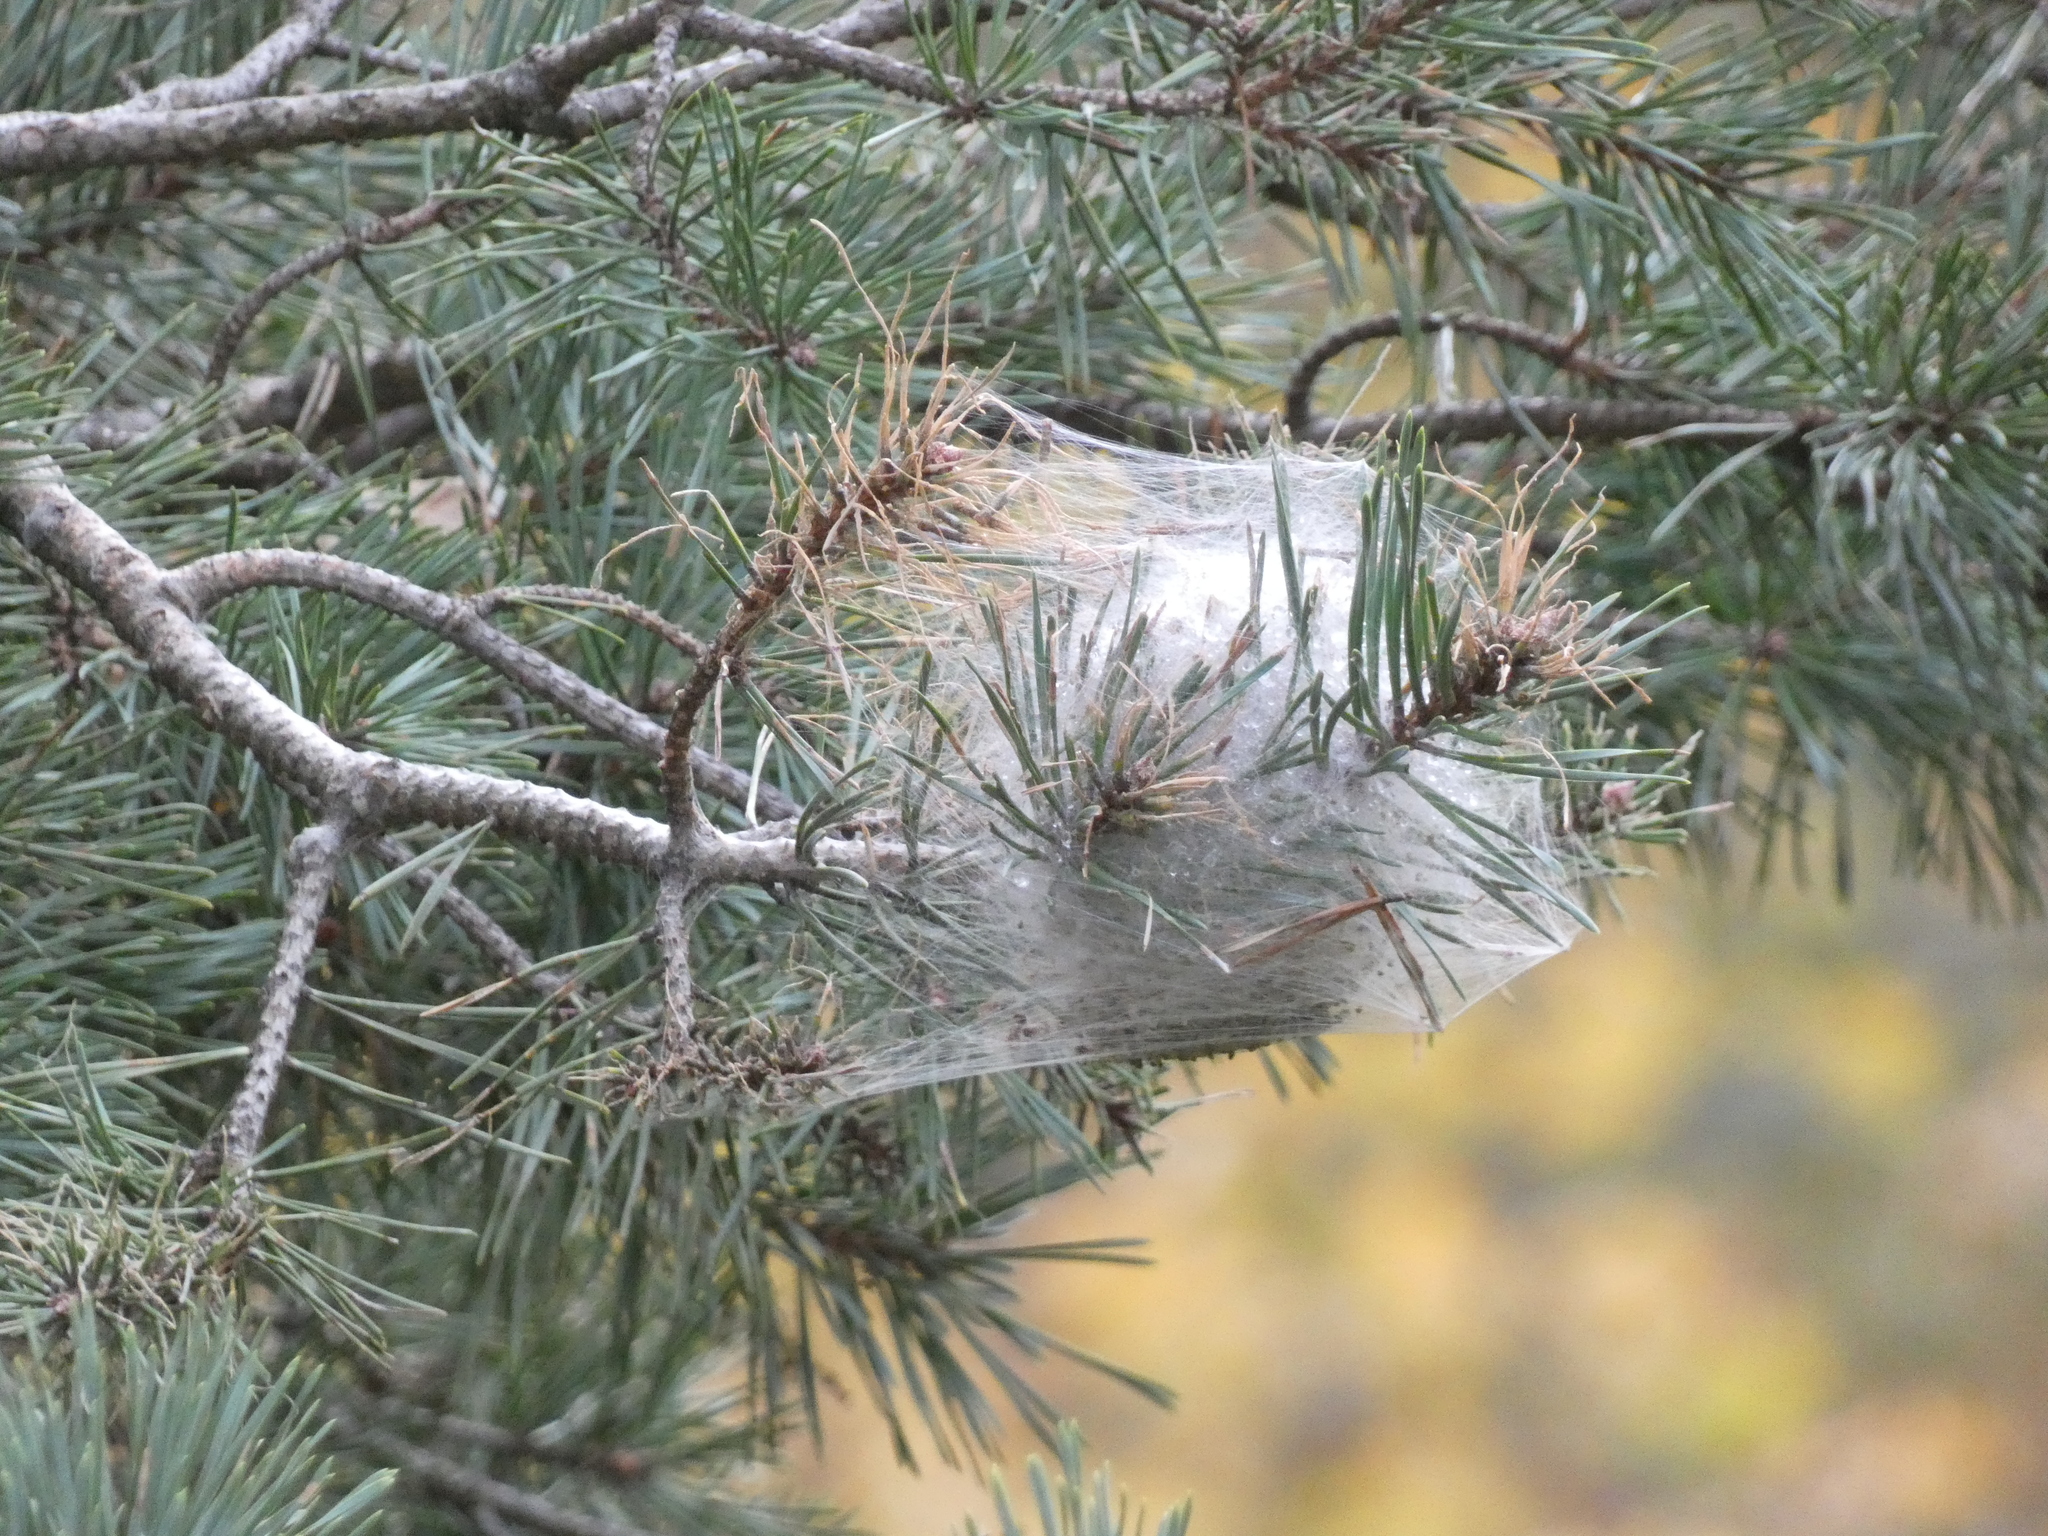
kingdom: Animalia
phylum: Arthropoda
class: Insecta
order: Lepidoptera
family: Notodontidae
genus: Thaumetopoea
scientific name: Thaumetopoea pityocampa
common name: Pine processionary
